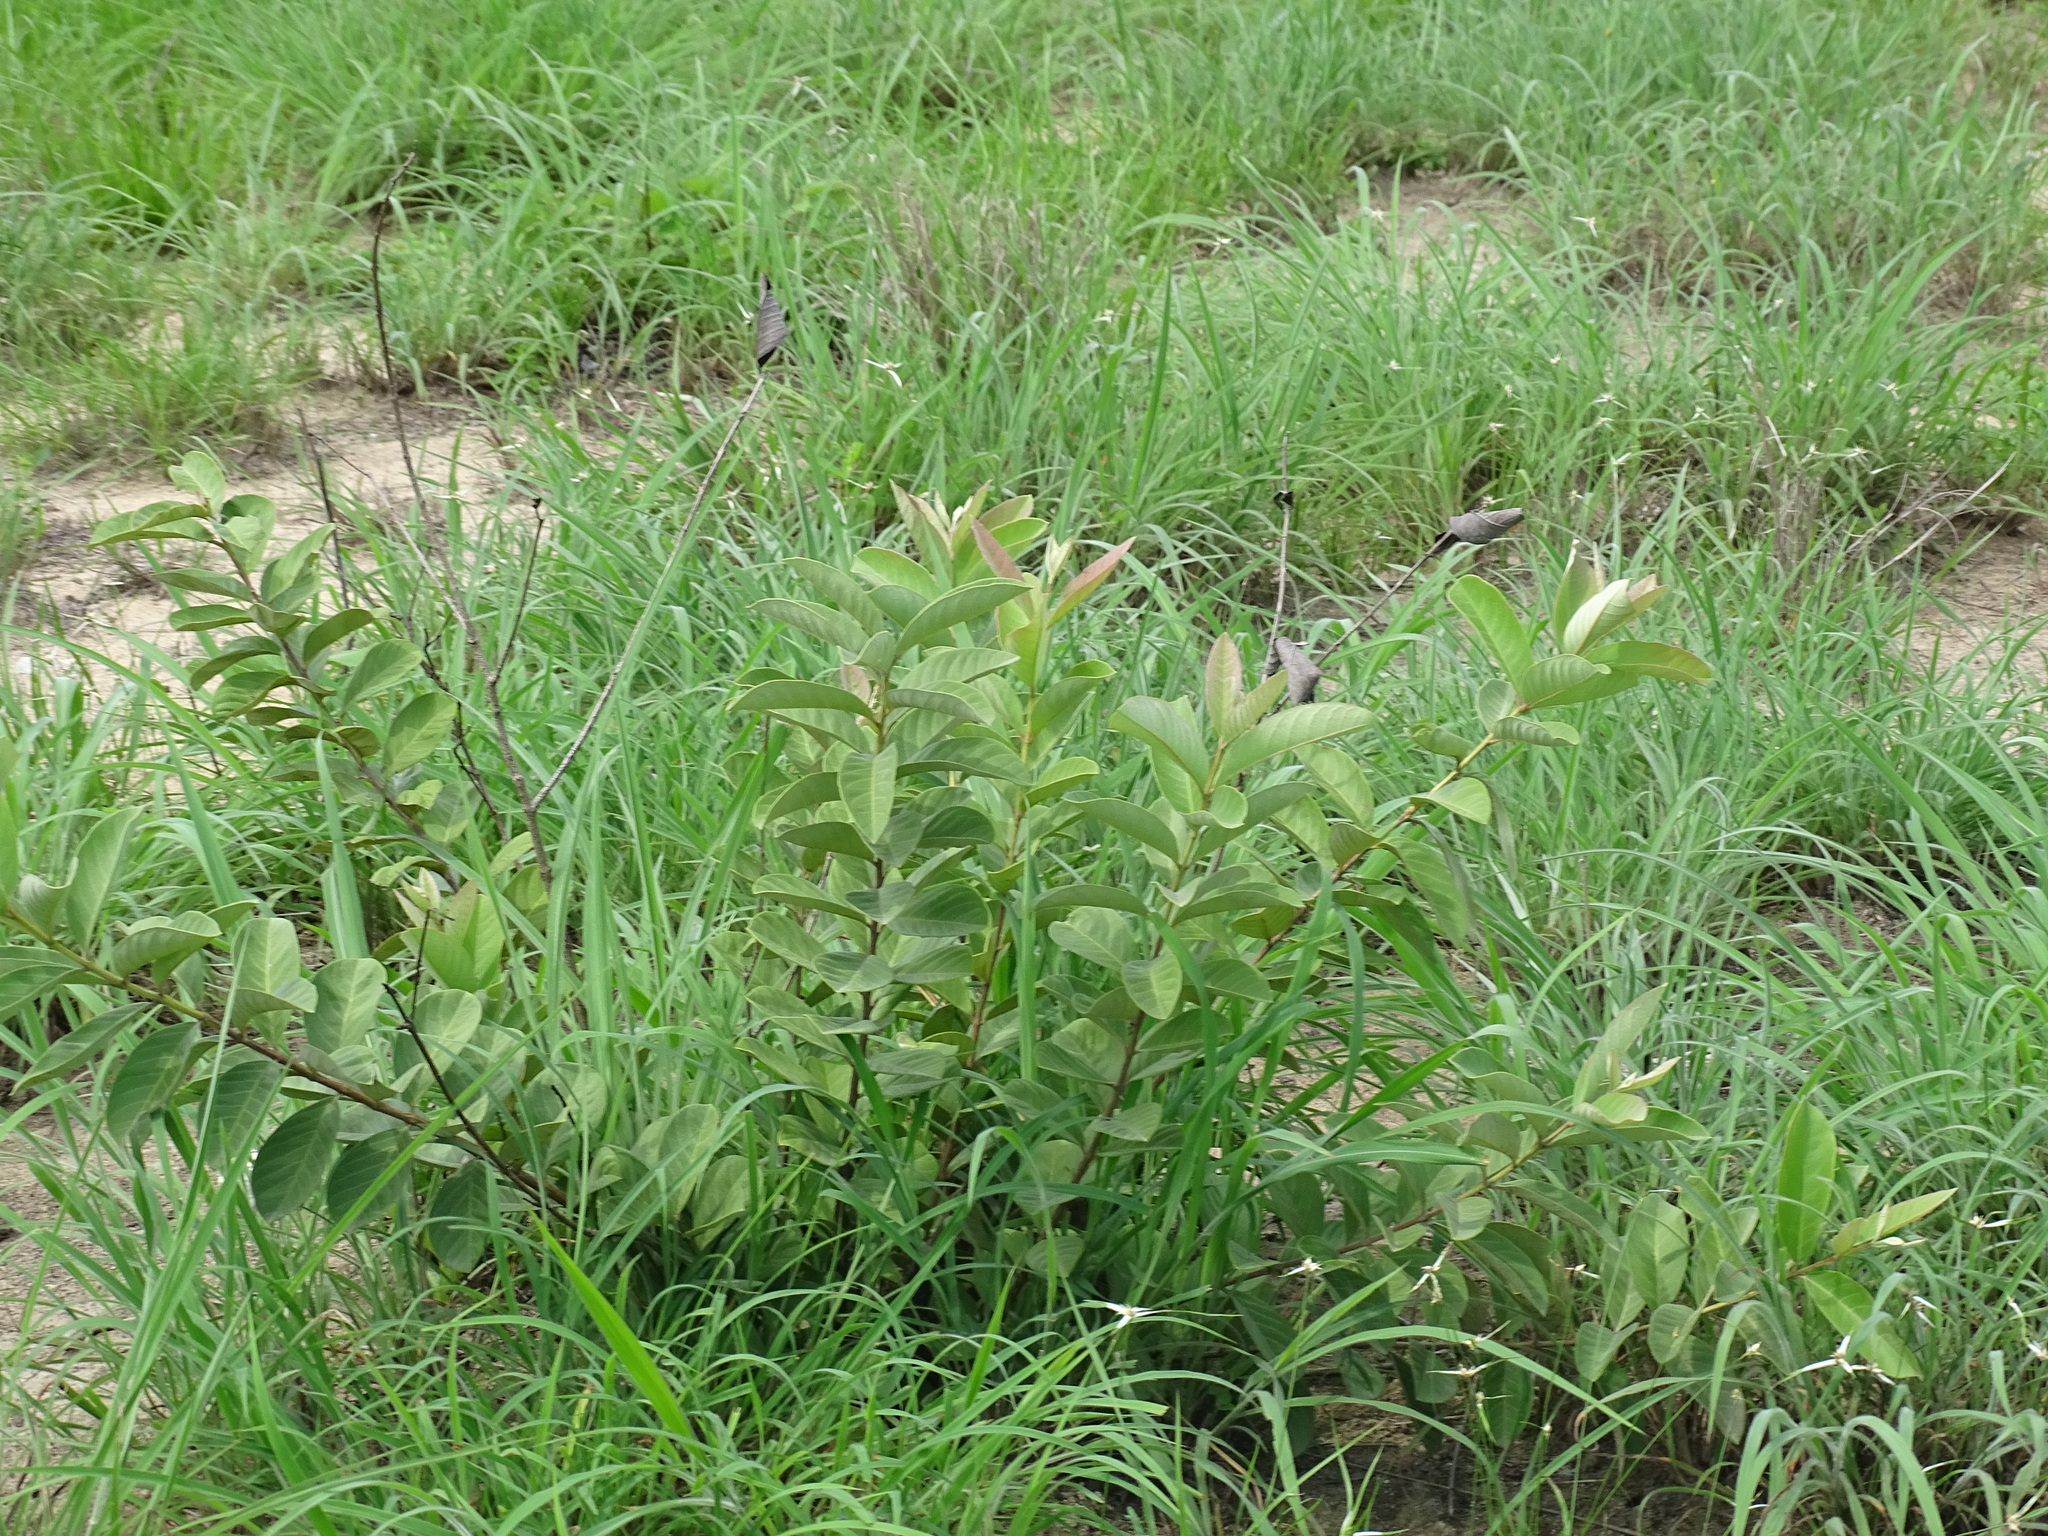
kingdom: Plantae
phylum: Tracheophyta
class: Magnoliopsida
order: Myrtales
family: Myrtaceae
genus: Psidium
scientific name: Psidium guineense
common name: Brazilian guava
